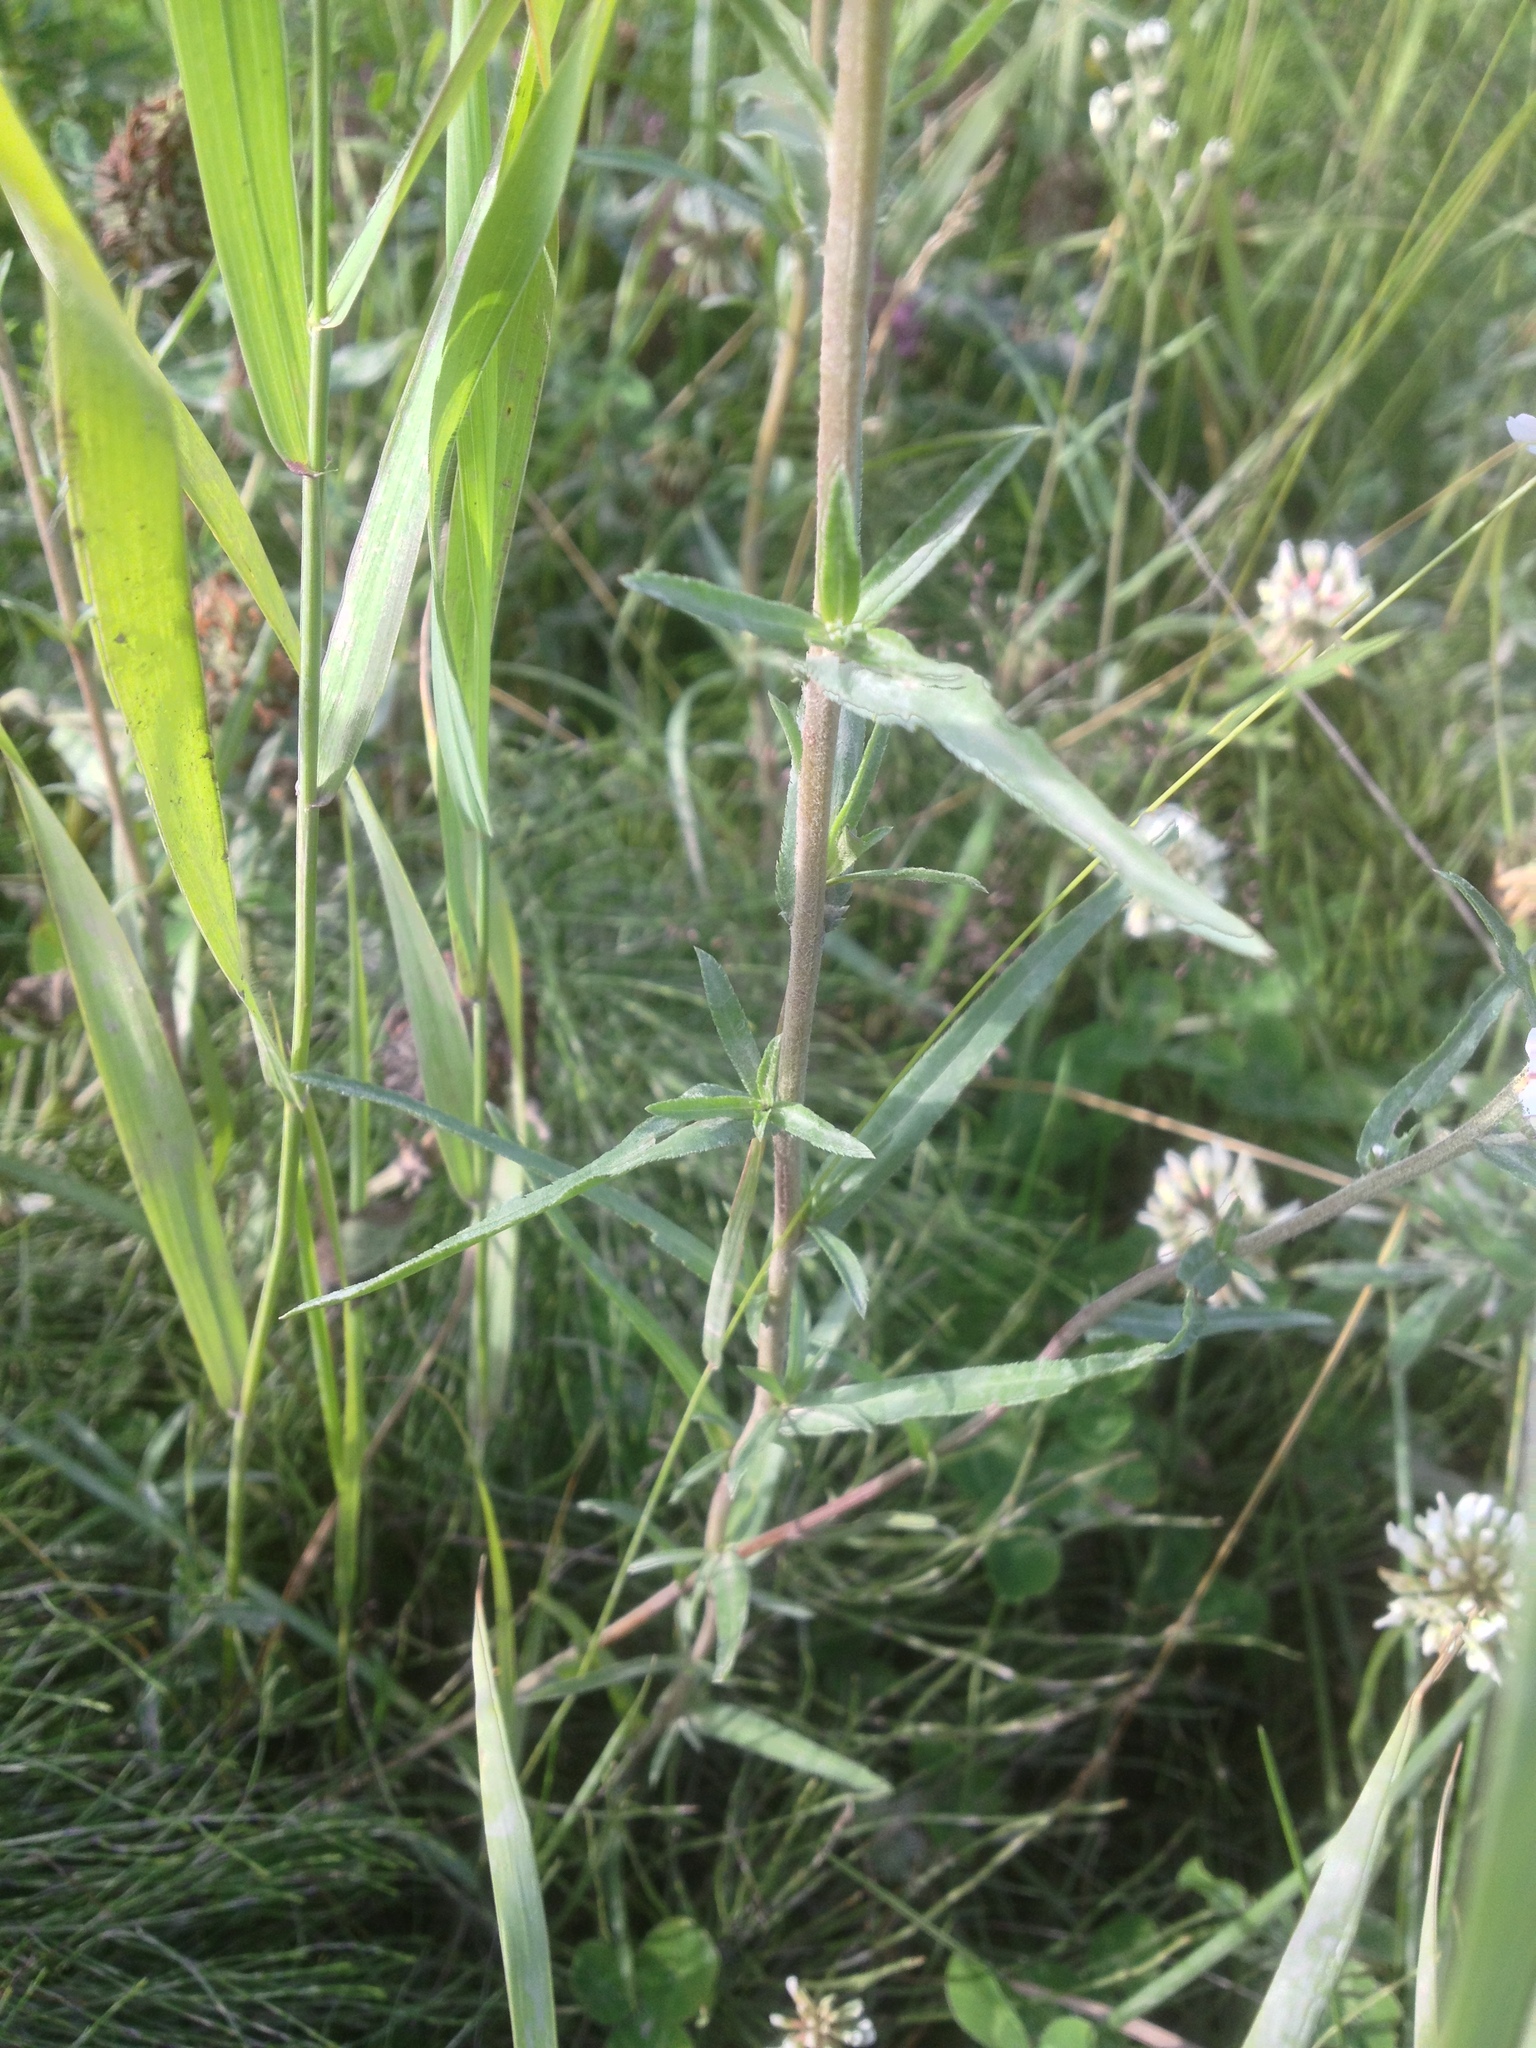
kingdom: Plantae
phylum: Tracheophyta
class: Magnoliopsida
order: Asterales
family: Asteraceae
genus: Achillea
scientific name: Achillea ptarmica
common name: Sneezeweed
